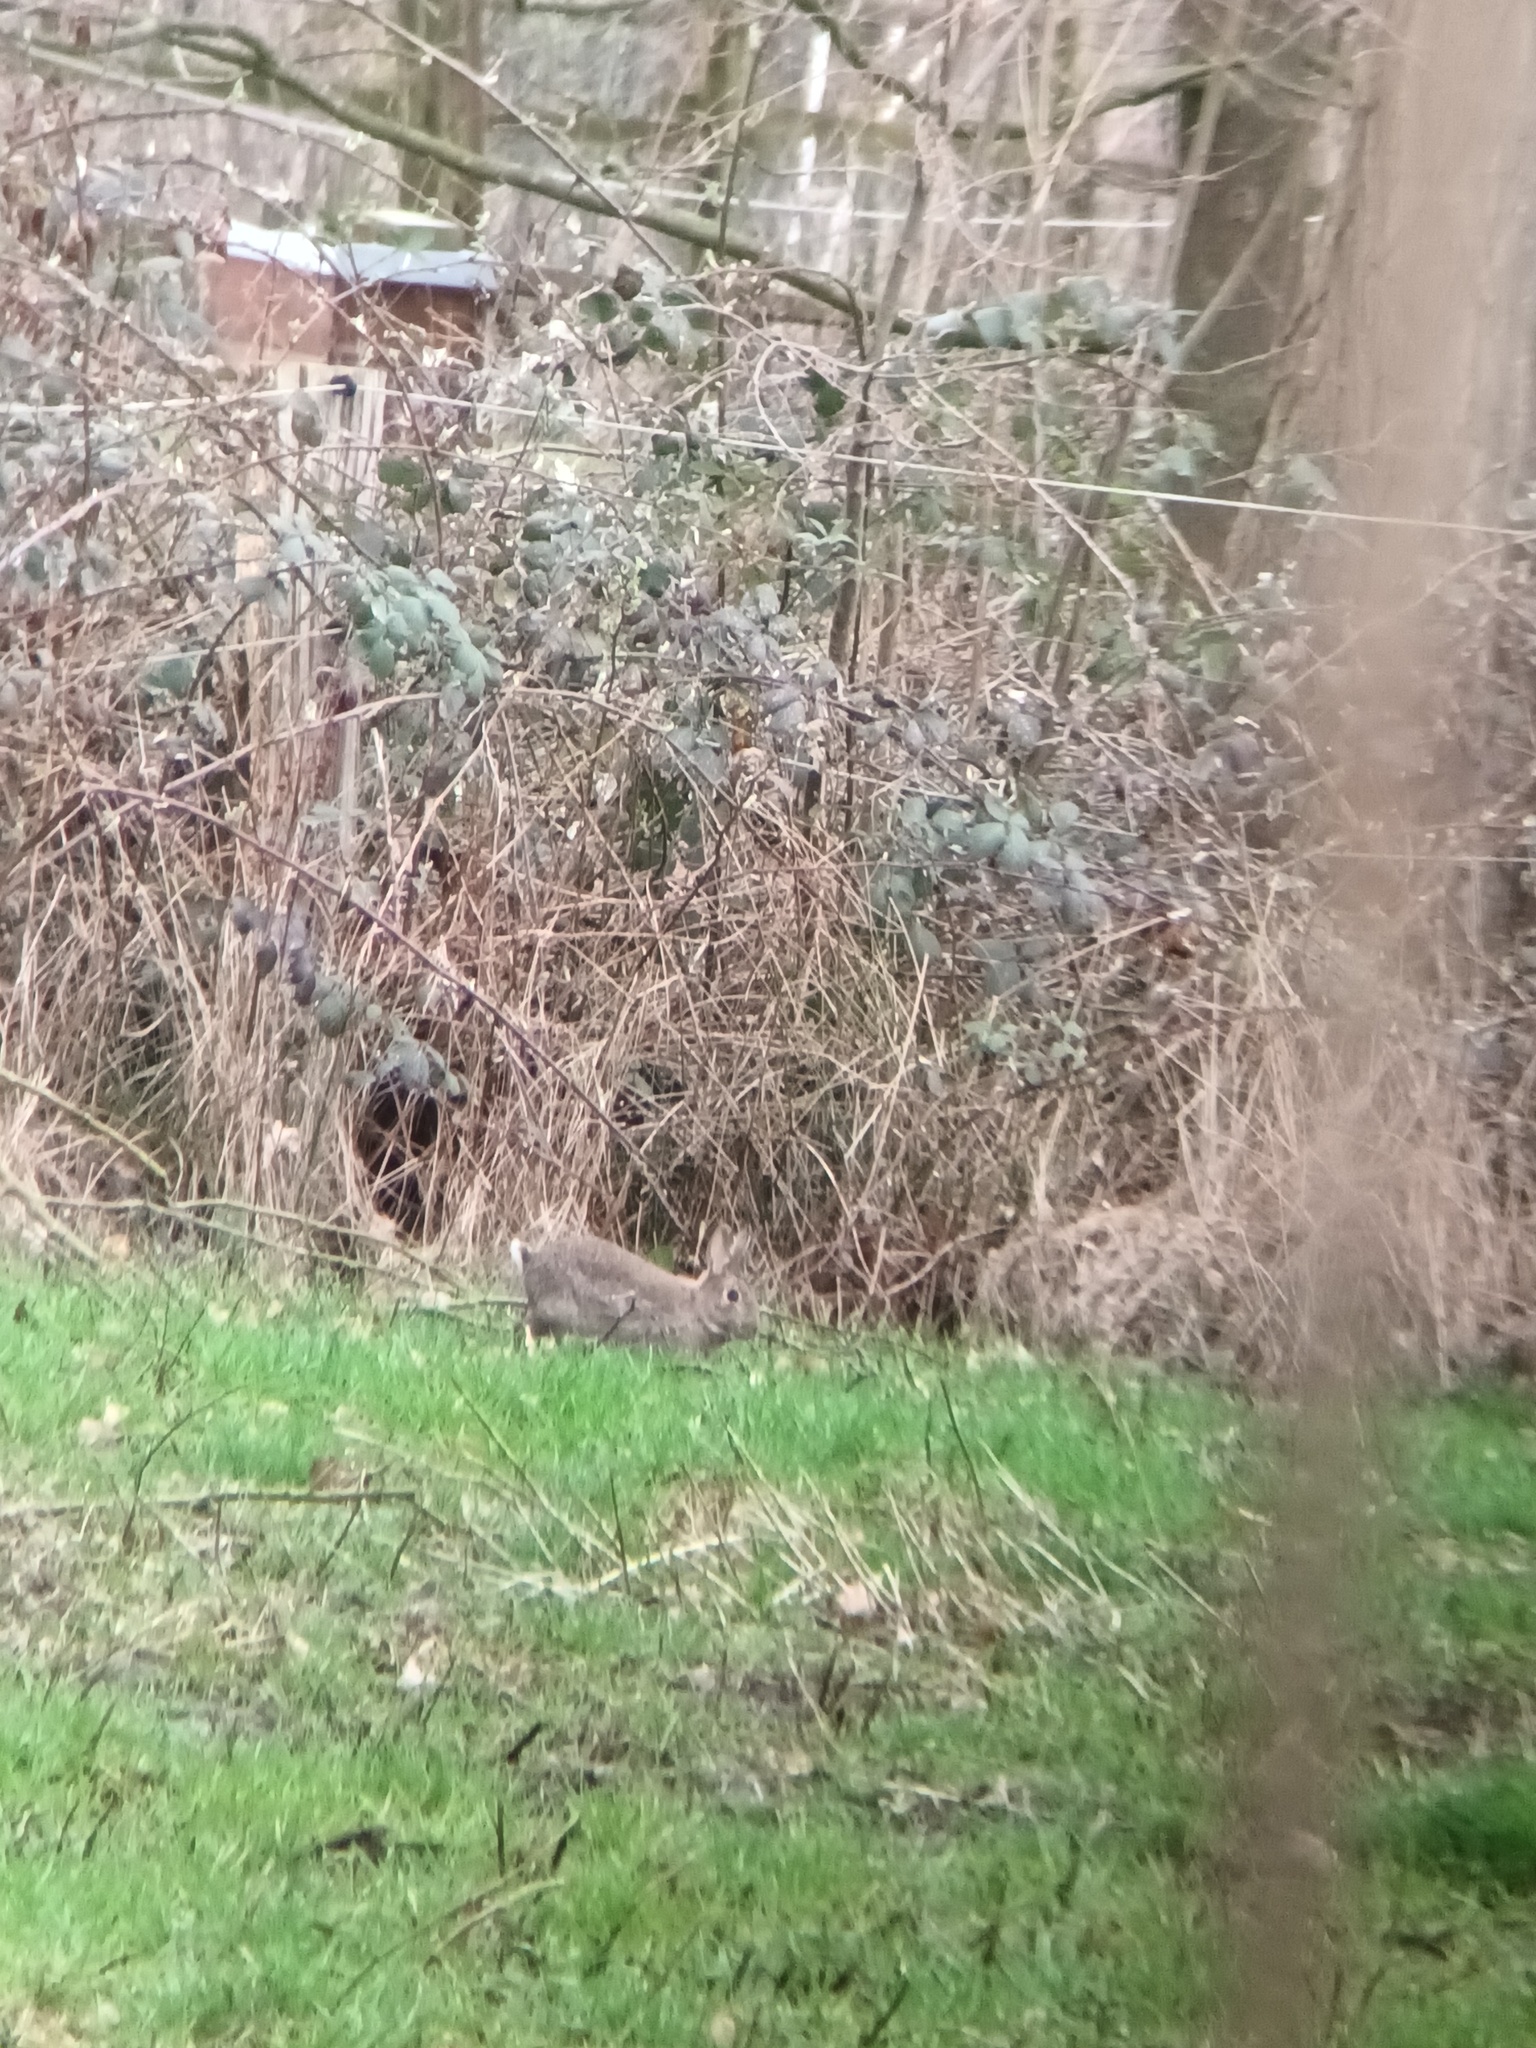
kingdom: Animalia
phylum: Chordata
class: Mammalia
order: Lagomorpha
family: Leporidae
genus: Oryctolagus
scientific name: Oryctolagus cuniculus
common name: European rabbit
